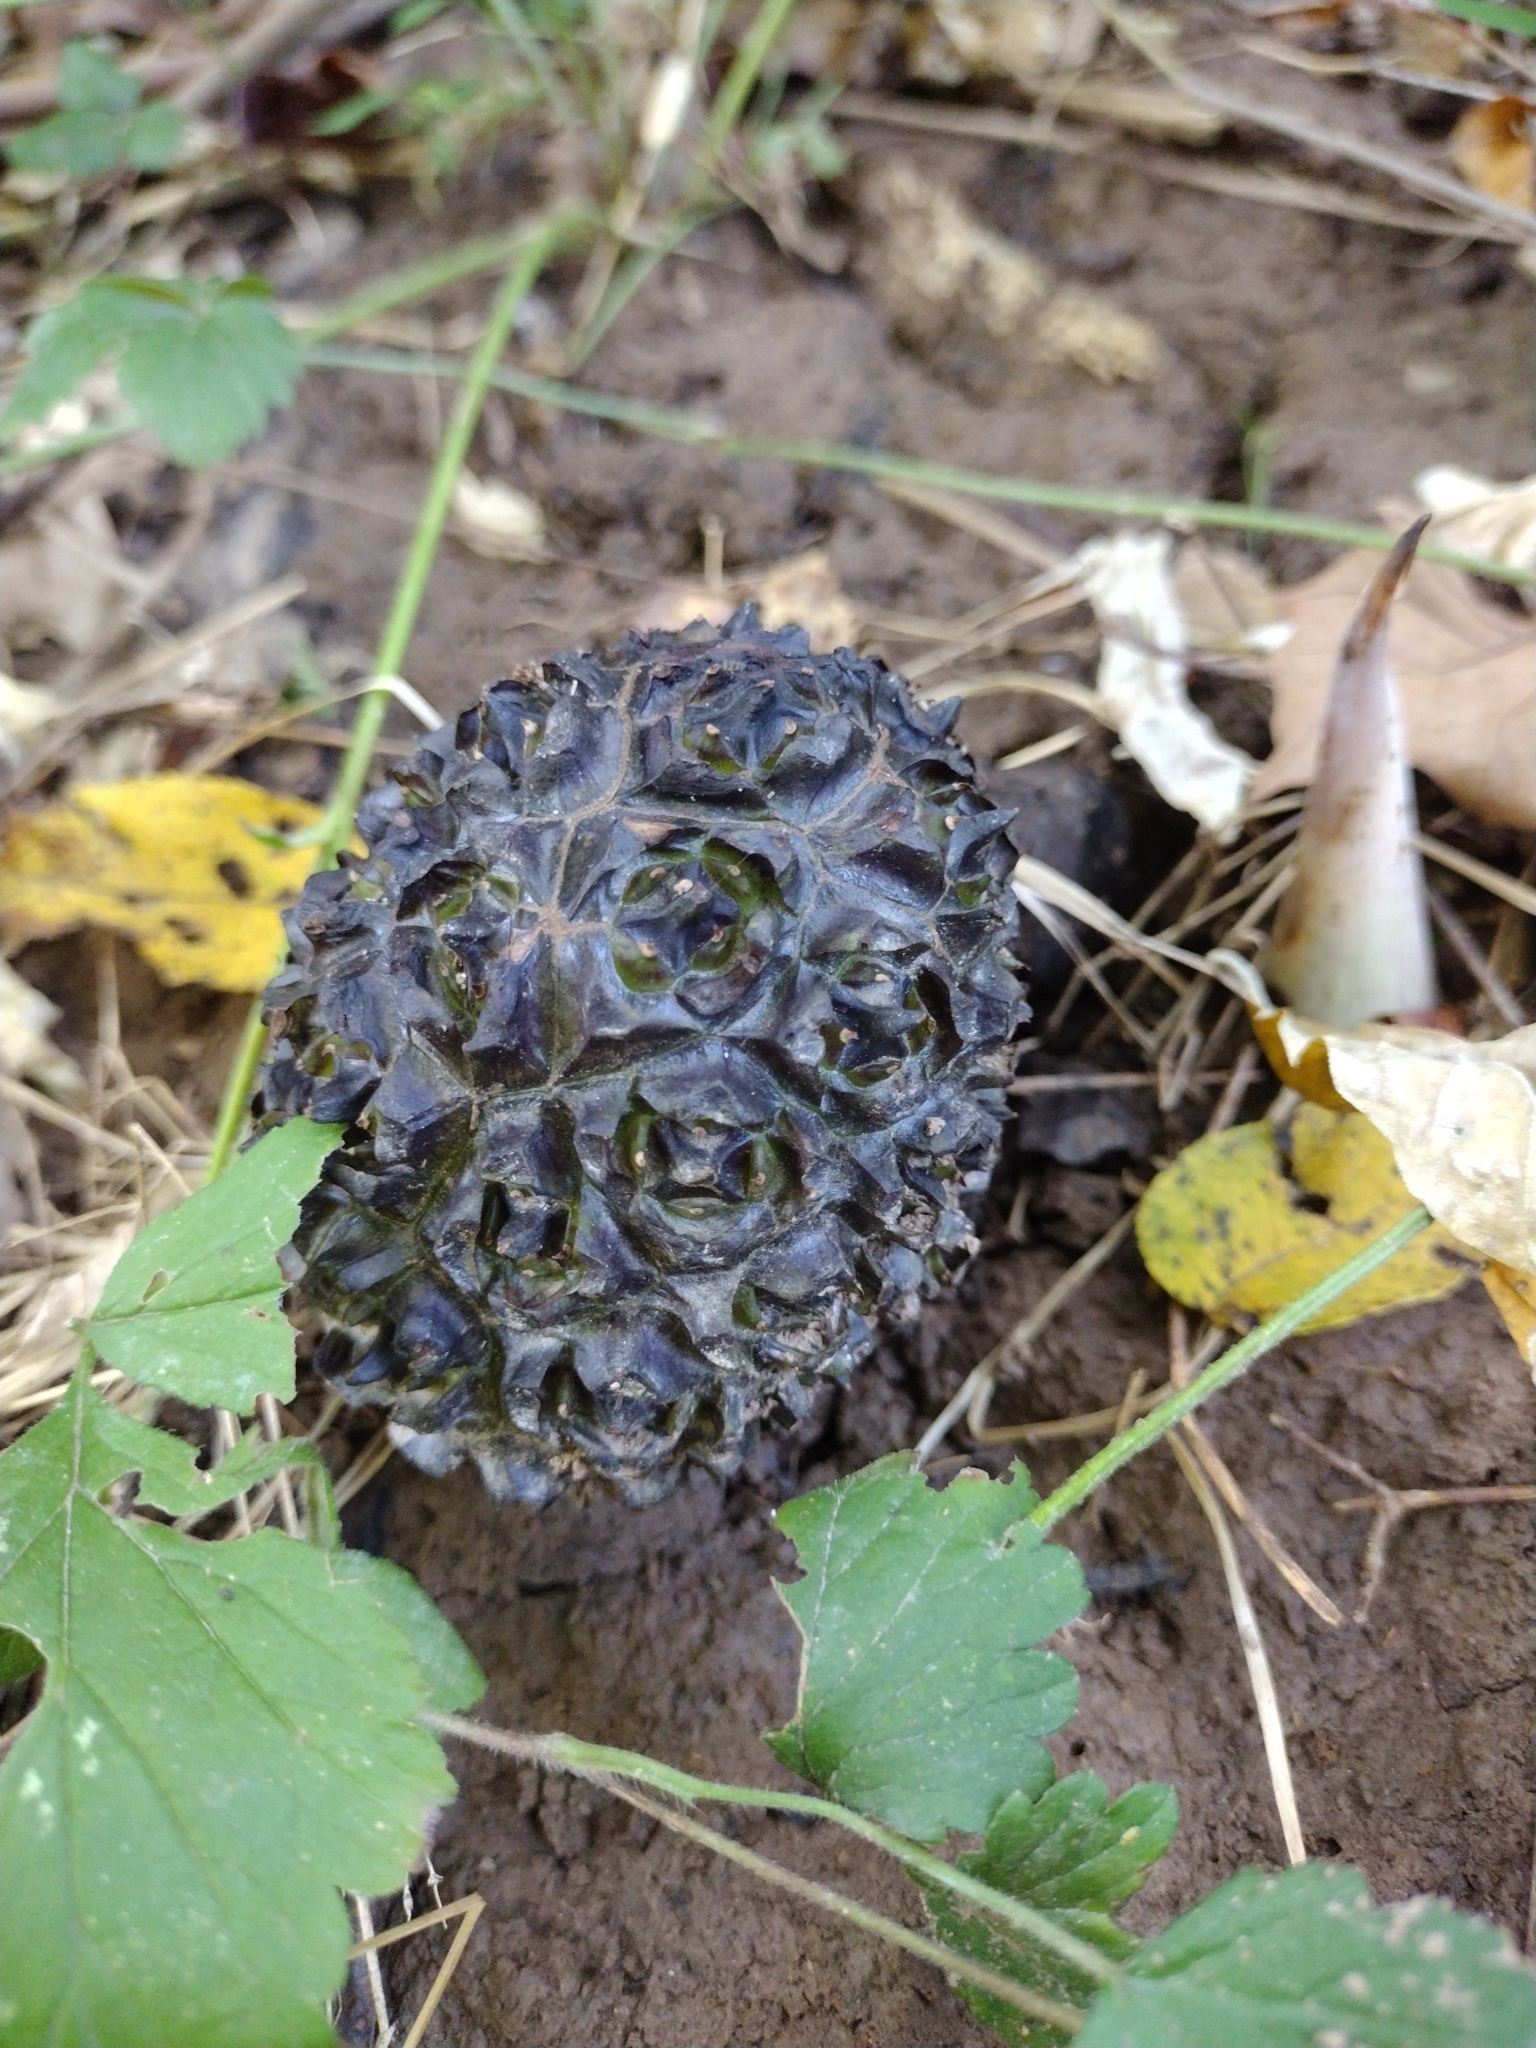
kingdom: Plantae
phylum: Tracheophyta
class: Liliopsida
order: Alismatales
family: Araceae
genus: Symplocarpus
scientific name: Symplocarpus foetidus
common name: Eastern skunk cabbage
